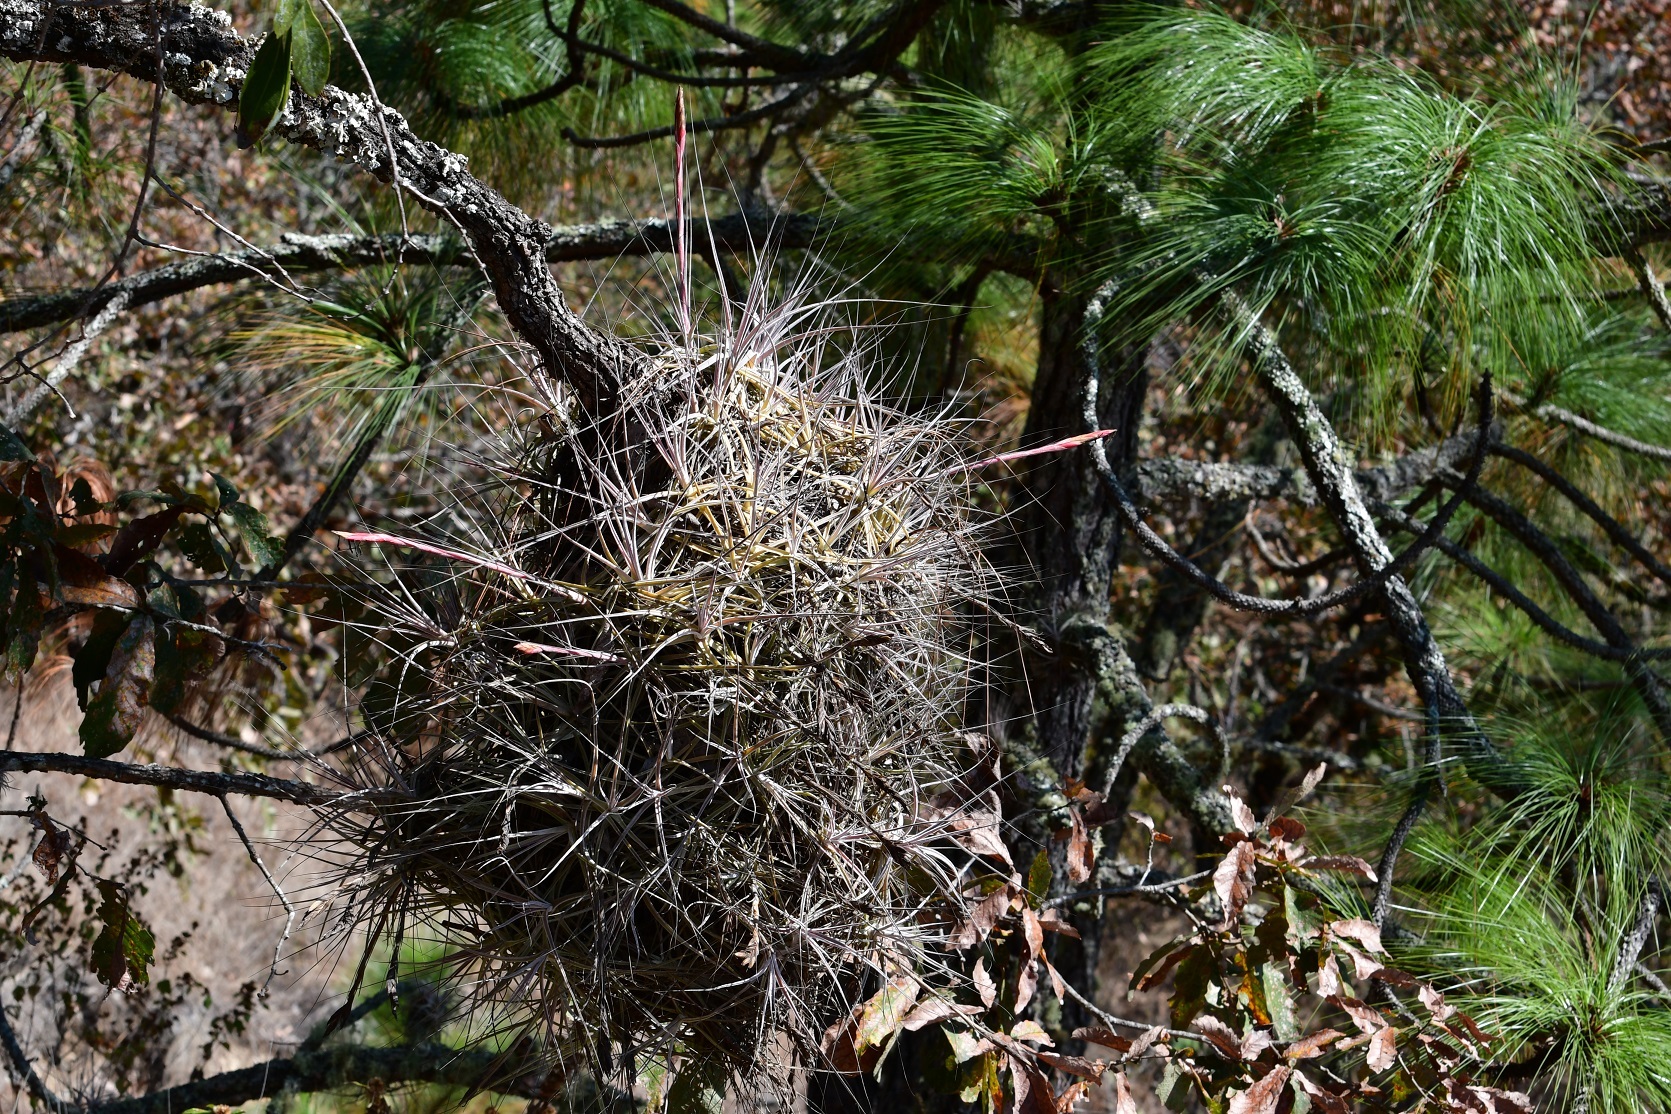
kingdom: Plantae
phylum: Tracheophyta
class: Liliopsida
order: Poales
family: Bromeliaceae
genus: Tillandsia
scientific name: Tillandsia schiedeana
